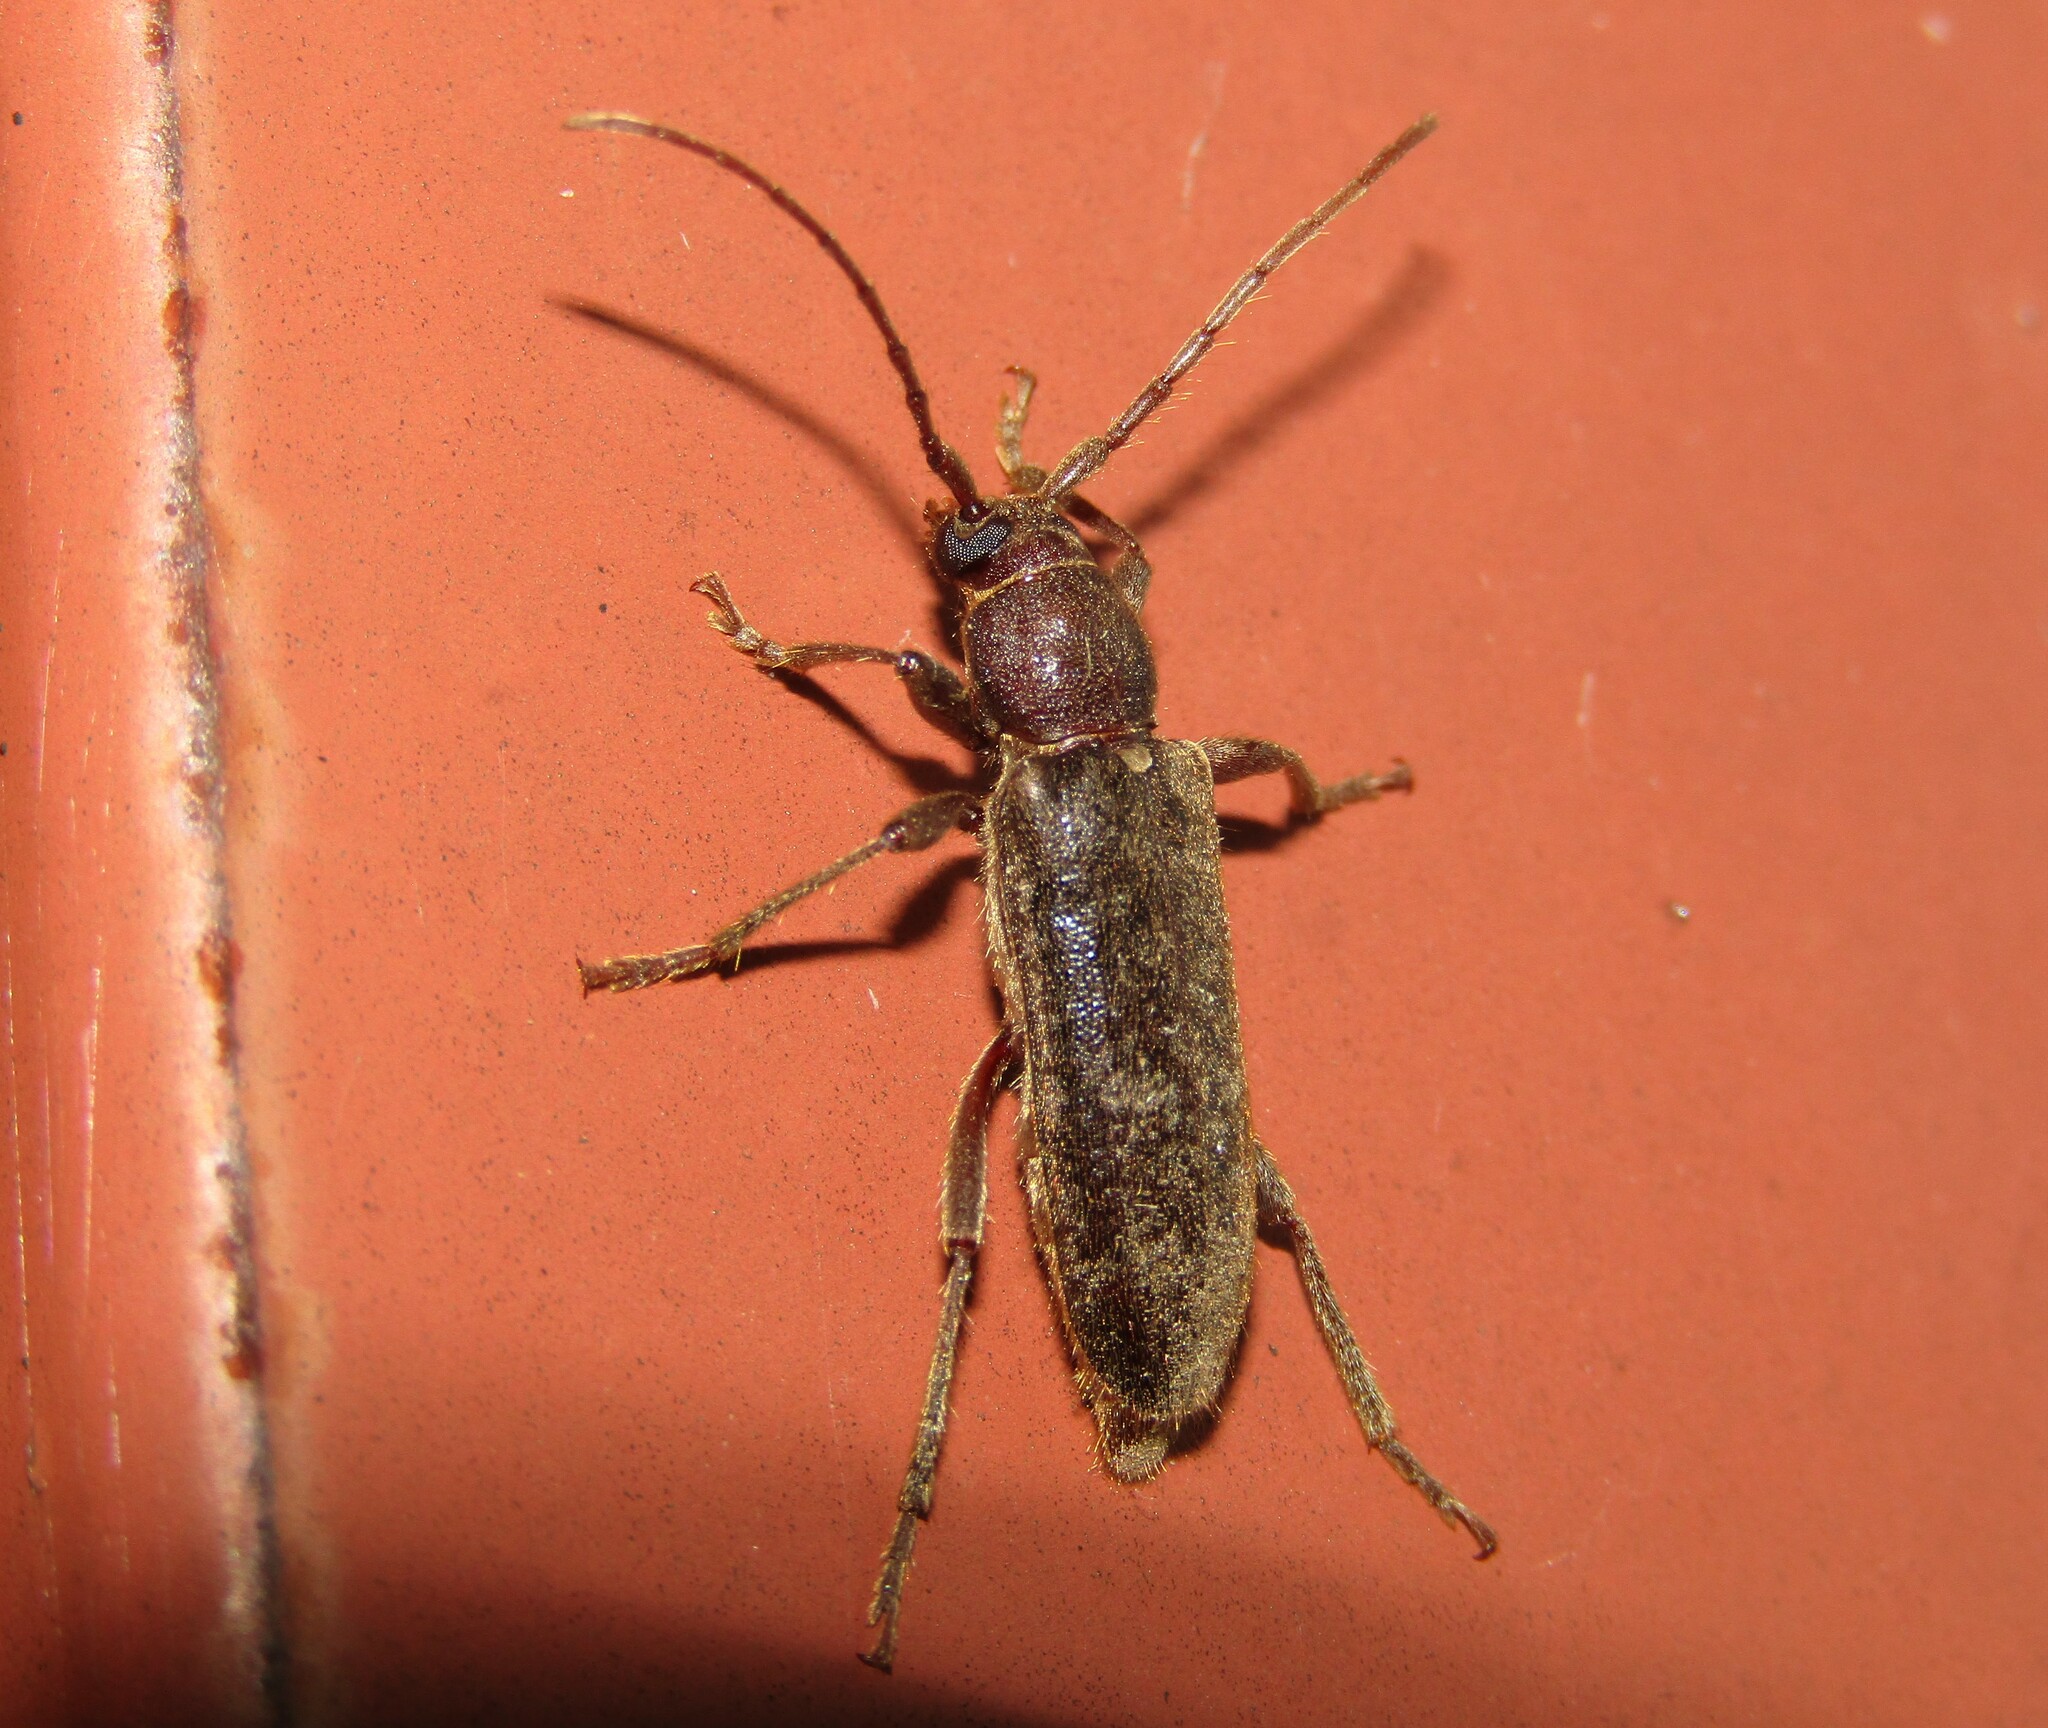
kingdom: Animalia
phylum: Arthropoda
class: Insecta
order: Coleoptera
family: Cerambycidae
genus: Trichoferus
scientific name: Trichoferus campestris
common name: Velvet long horned beetle
